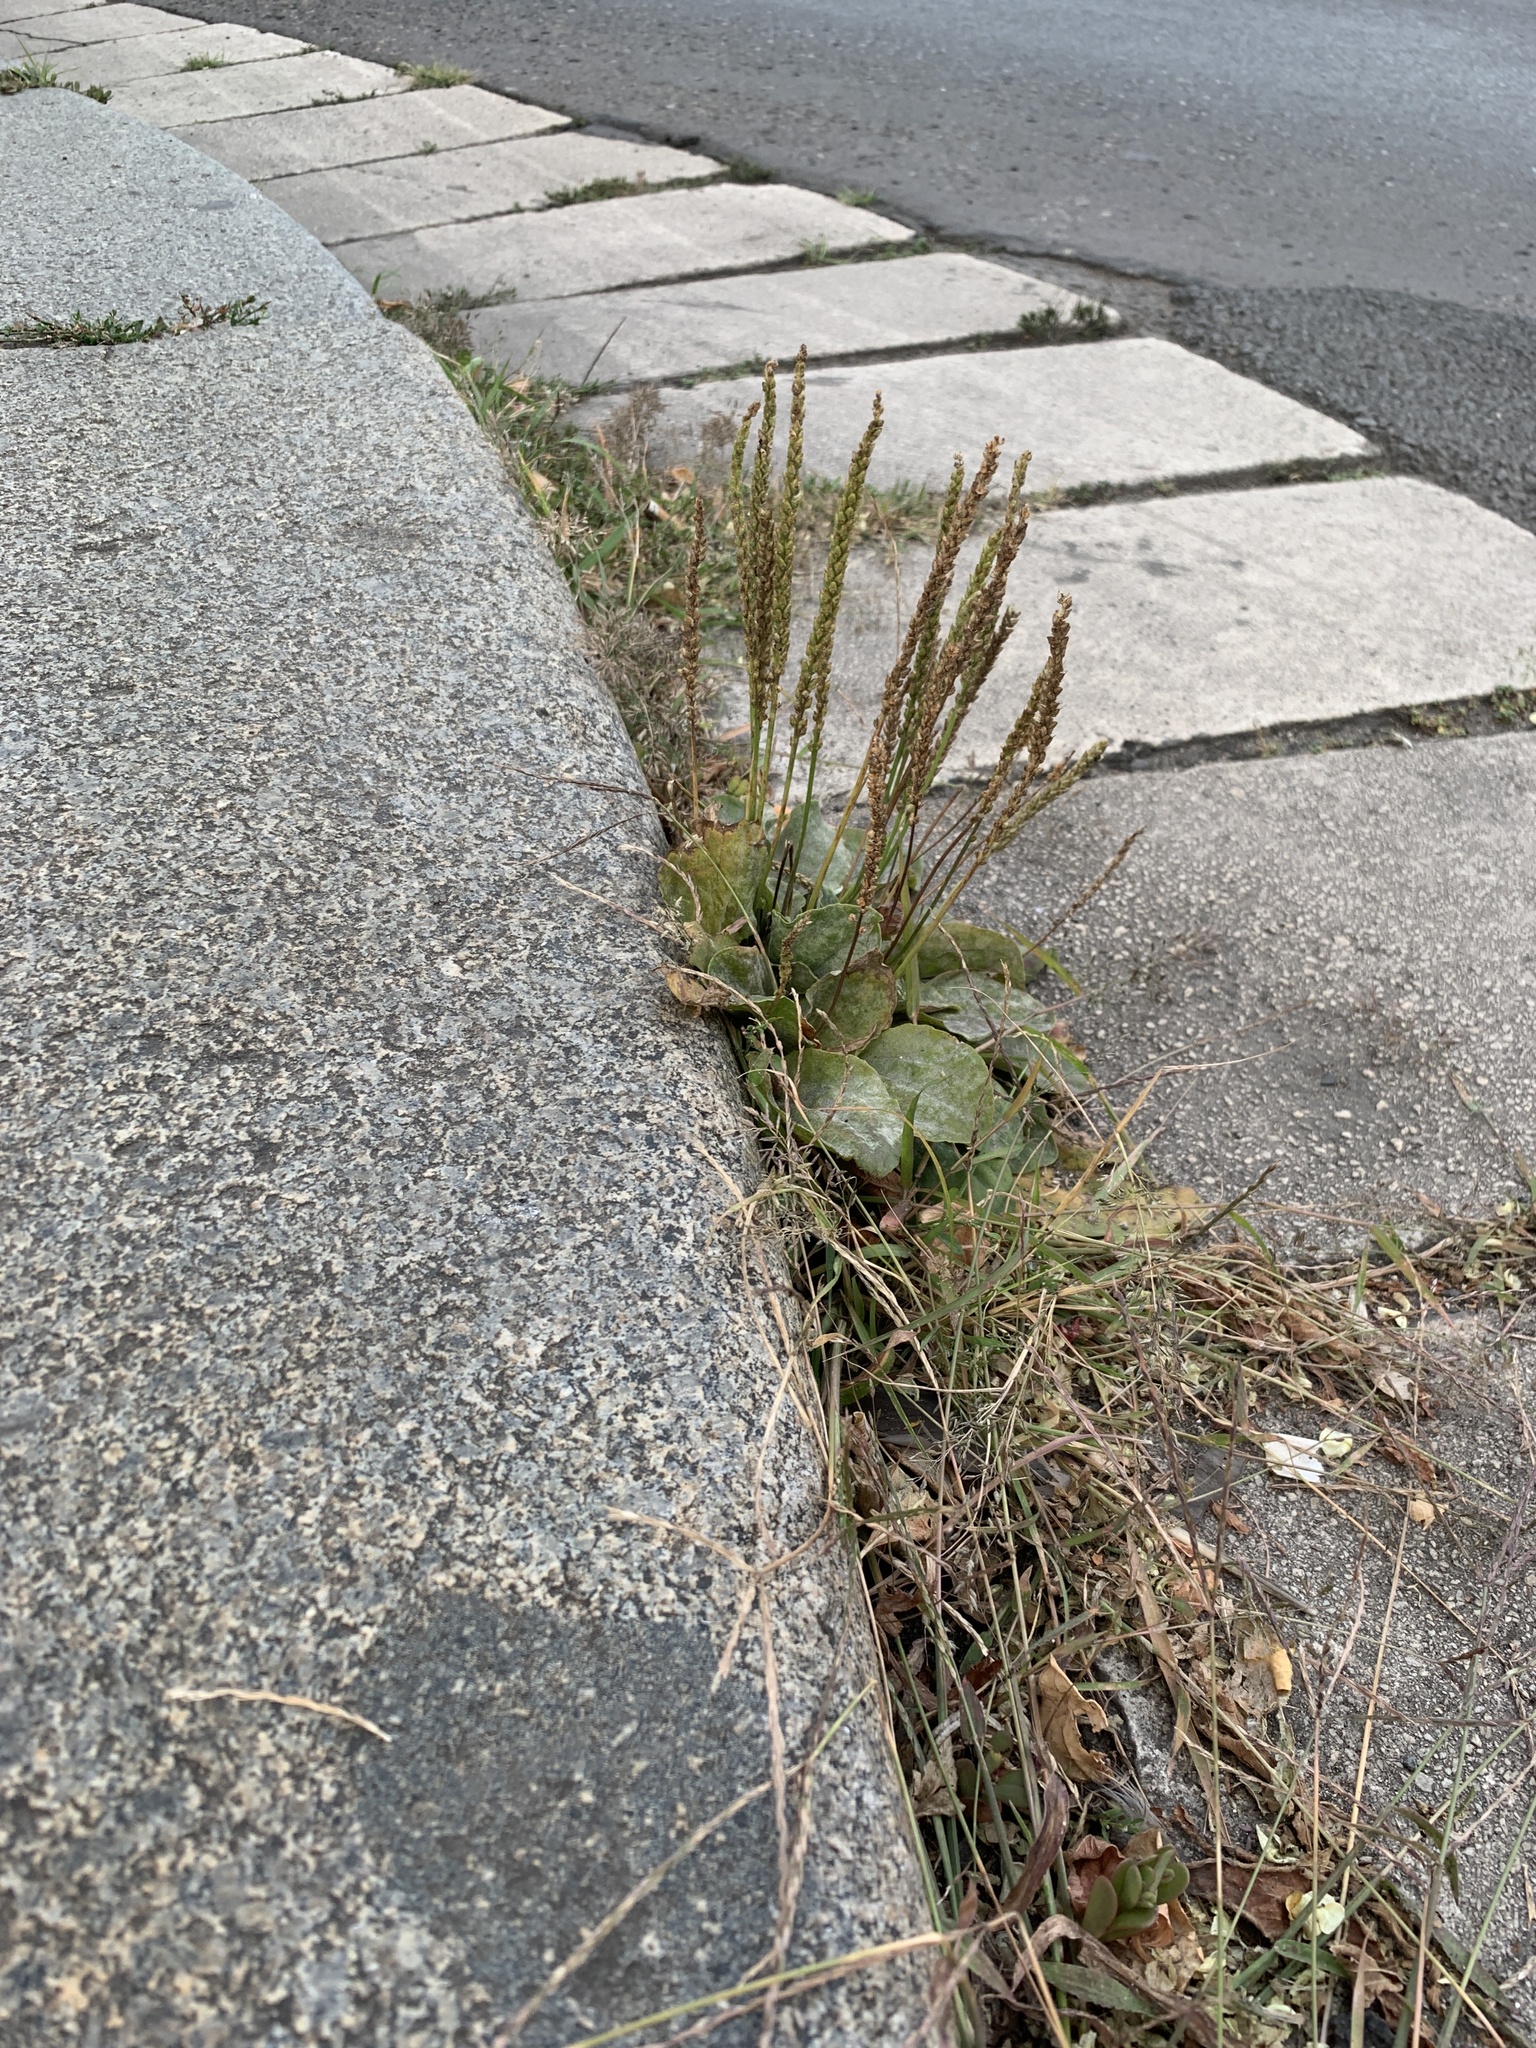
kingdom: Plantae
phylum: Tracheophyta
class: Magnoliopsida
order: Lamiales
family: Plantaginaceae
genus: Plantago
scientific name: Plantago major
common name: Common plantain
